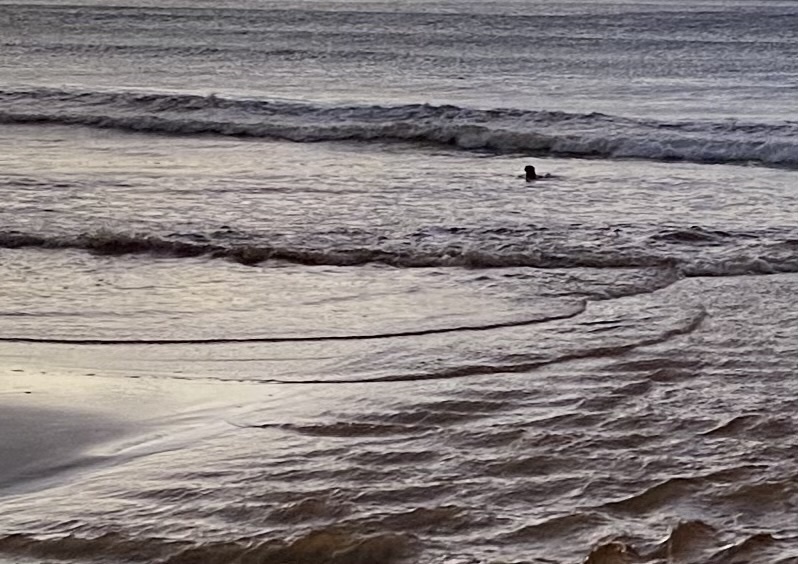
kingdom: Animalia
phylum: Chordata
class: Mammalia
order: Carnivora
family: Mustelidae
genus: Aonyx
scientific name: Aonyx capensis
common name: African clawless otter
